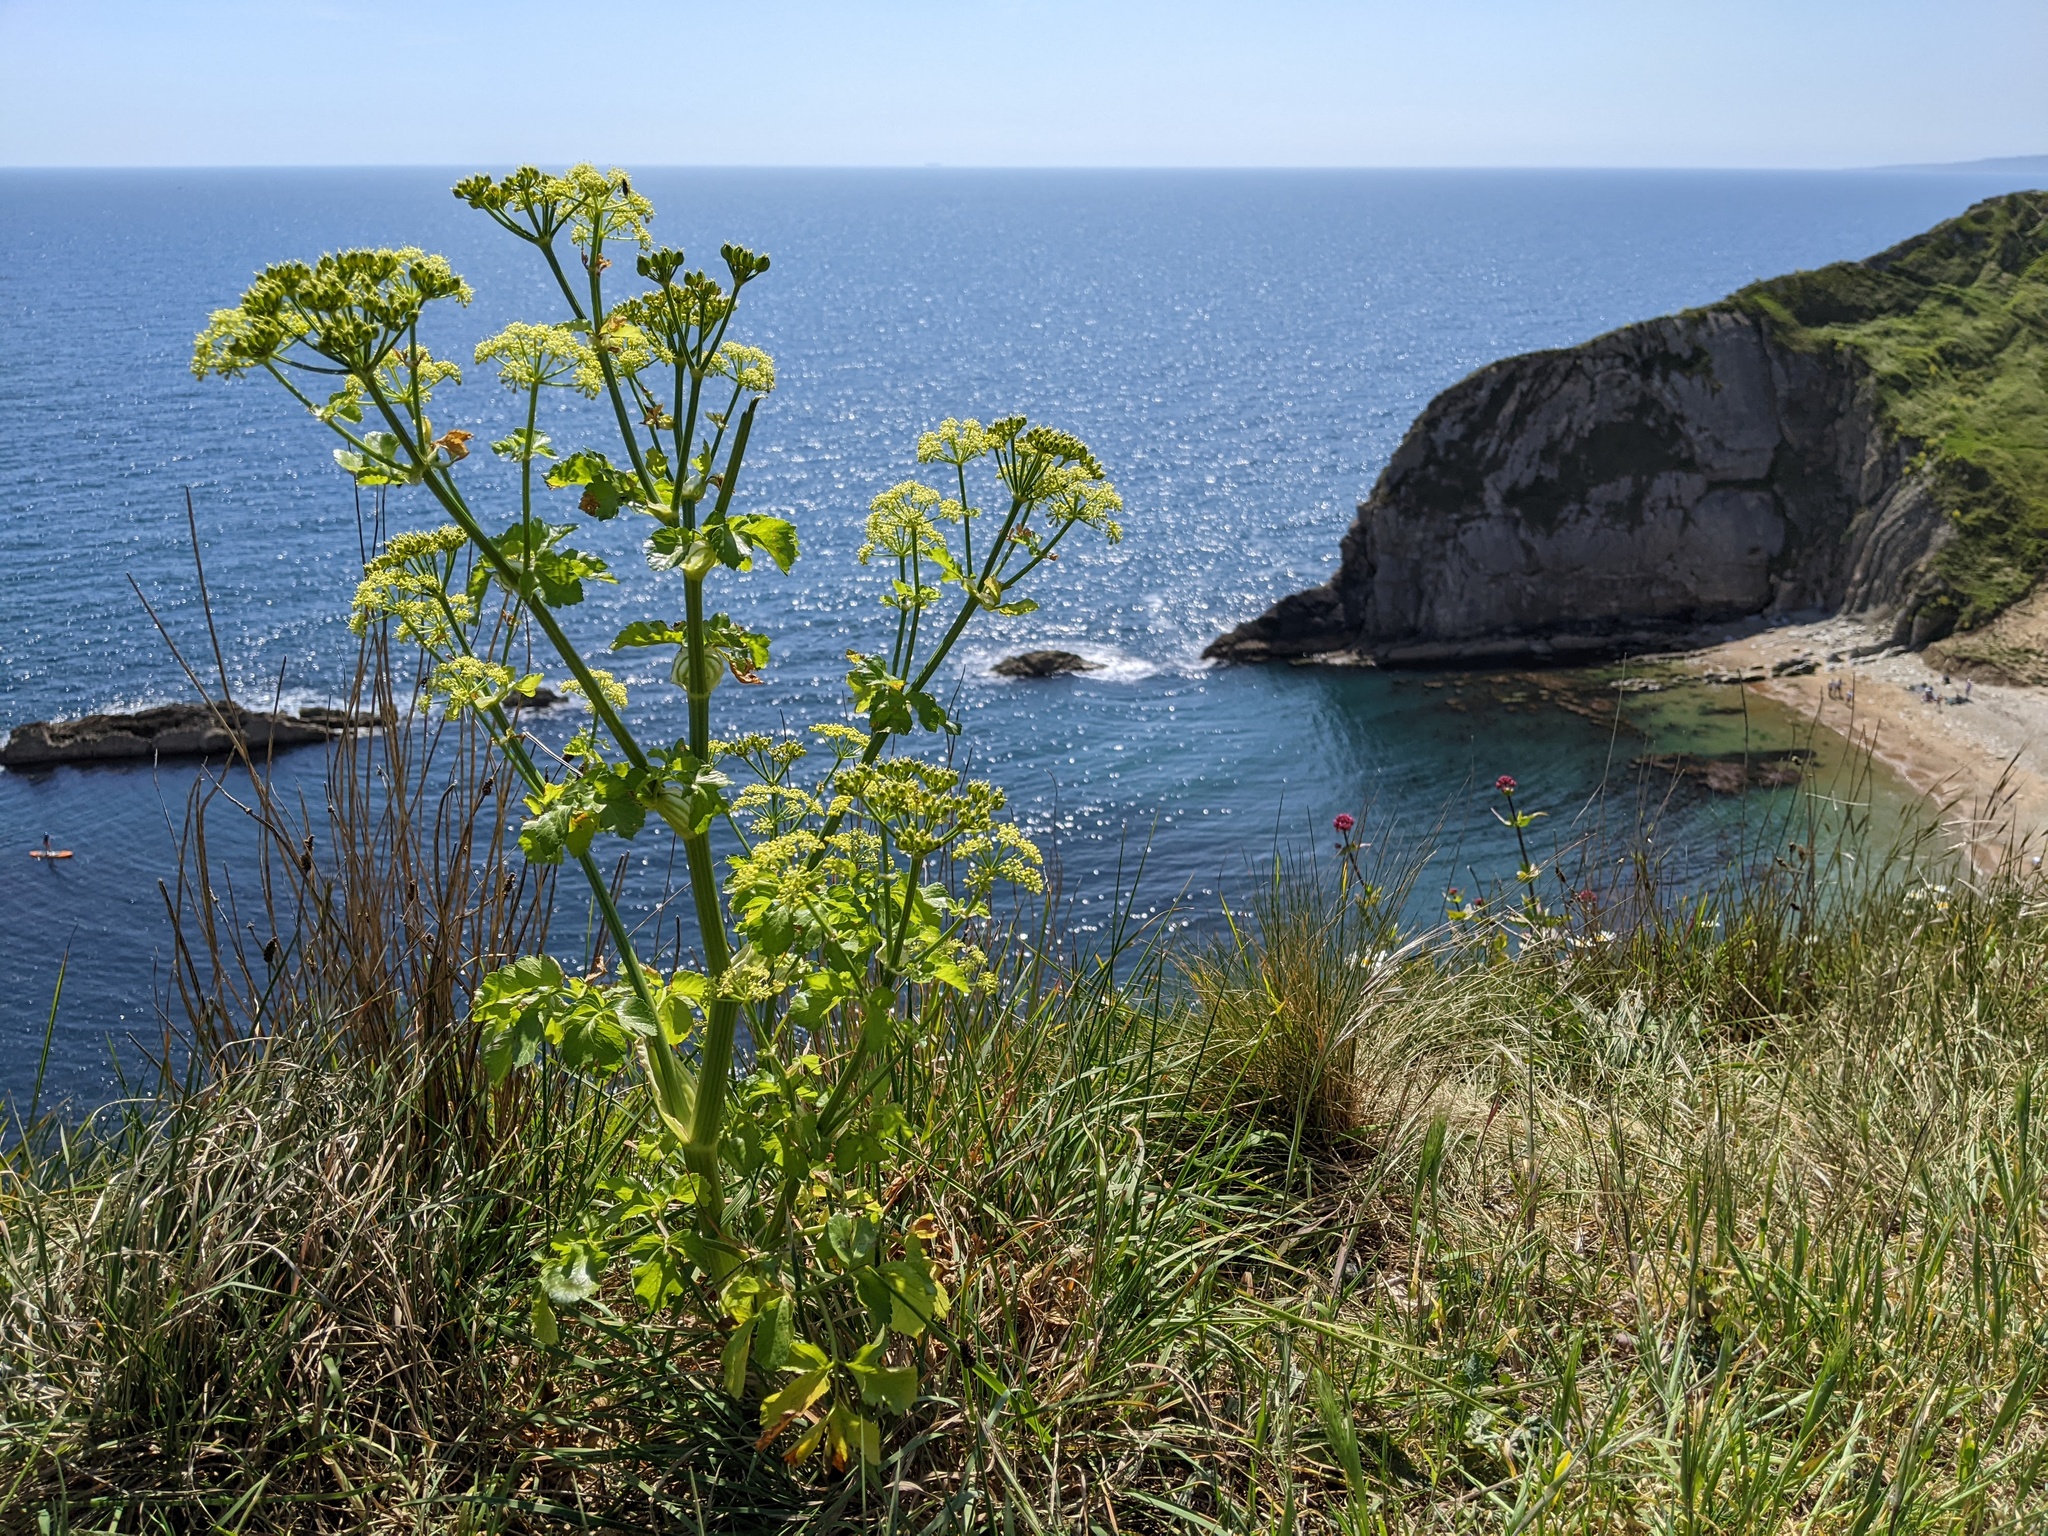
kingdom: Plantae
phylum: Tracheophyta
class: Magnoliopsida
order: Apiales
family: Apiaceae
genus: Smyrnium
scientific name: Smyrnium olusatrum
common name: Alexanders
